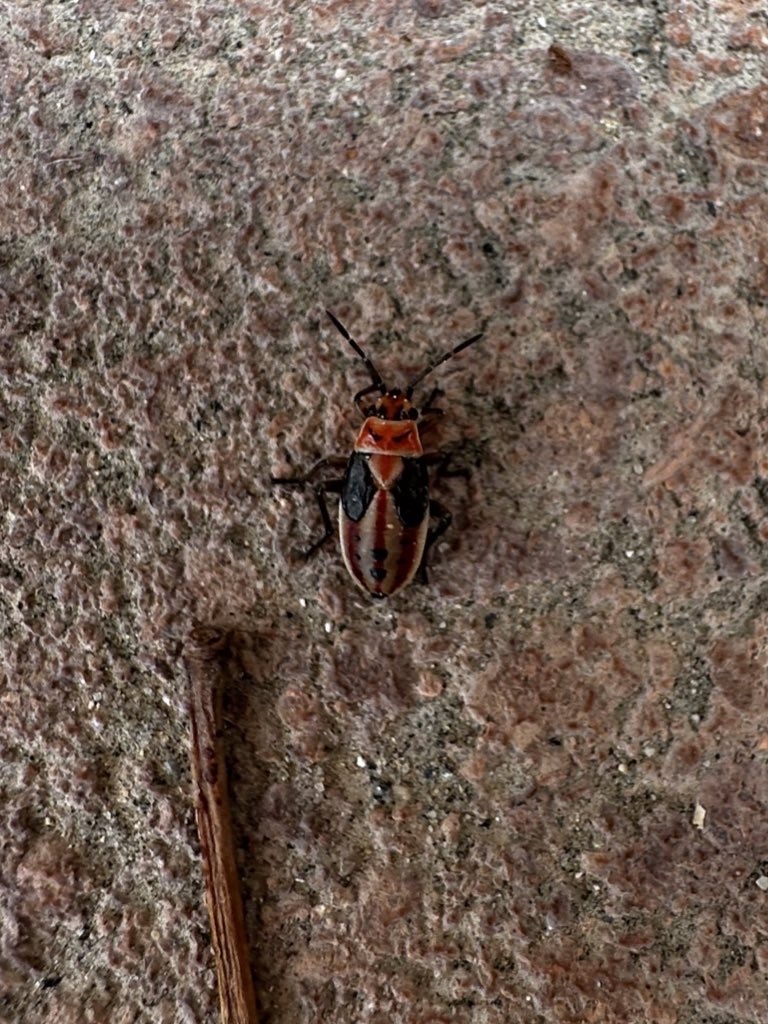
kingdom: Animalia
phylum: Arthropoda
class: Insecta
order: Hemiptera
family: Lygaeidae
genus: Lygaeus
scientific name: Lygaeus kalmii
